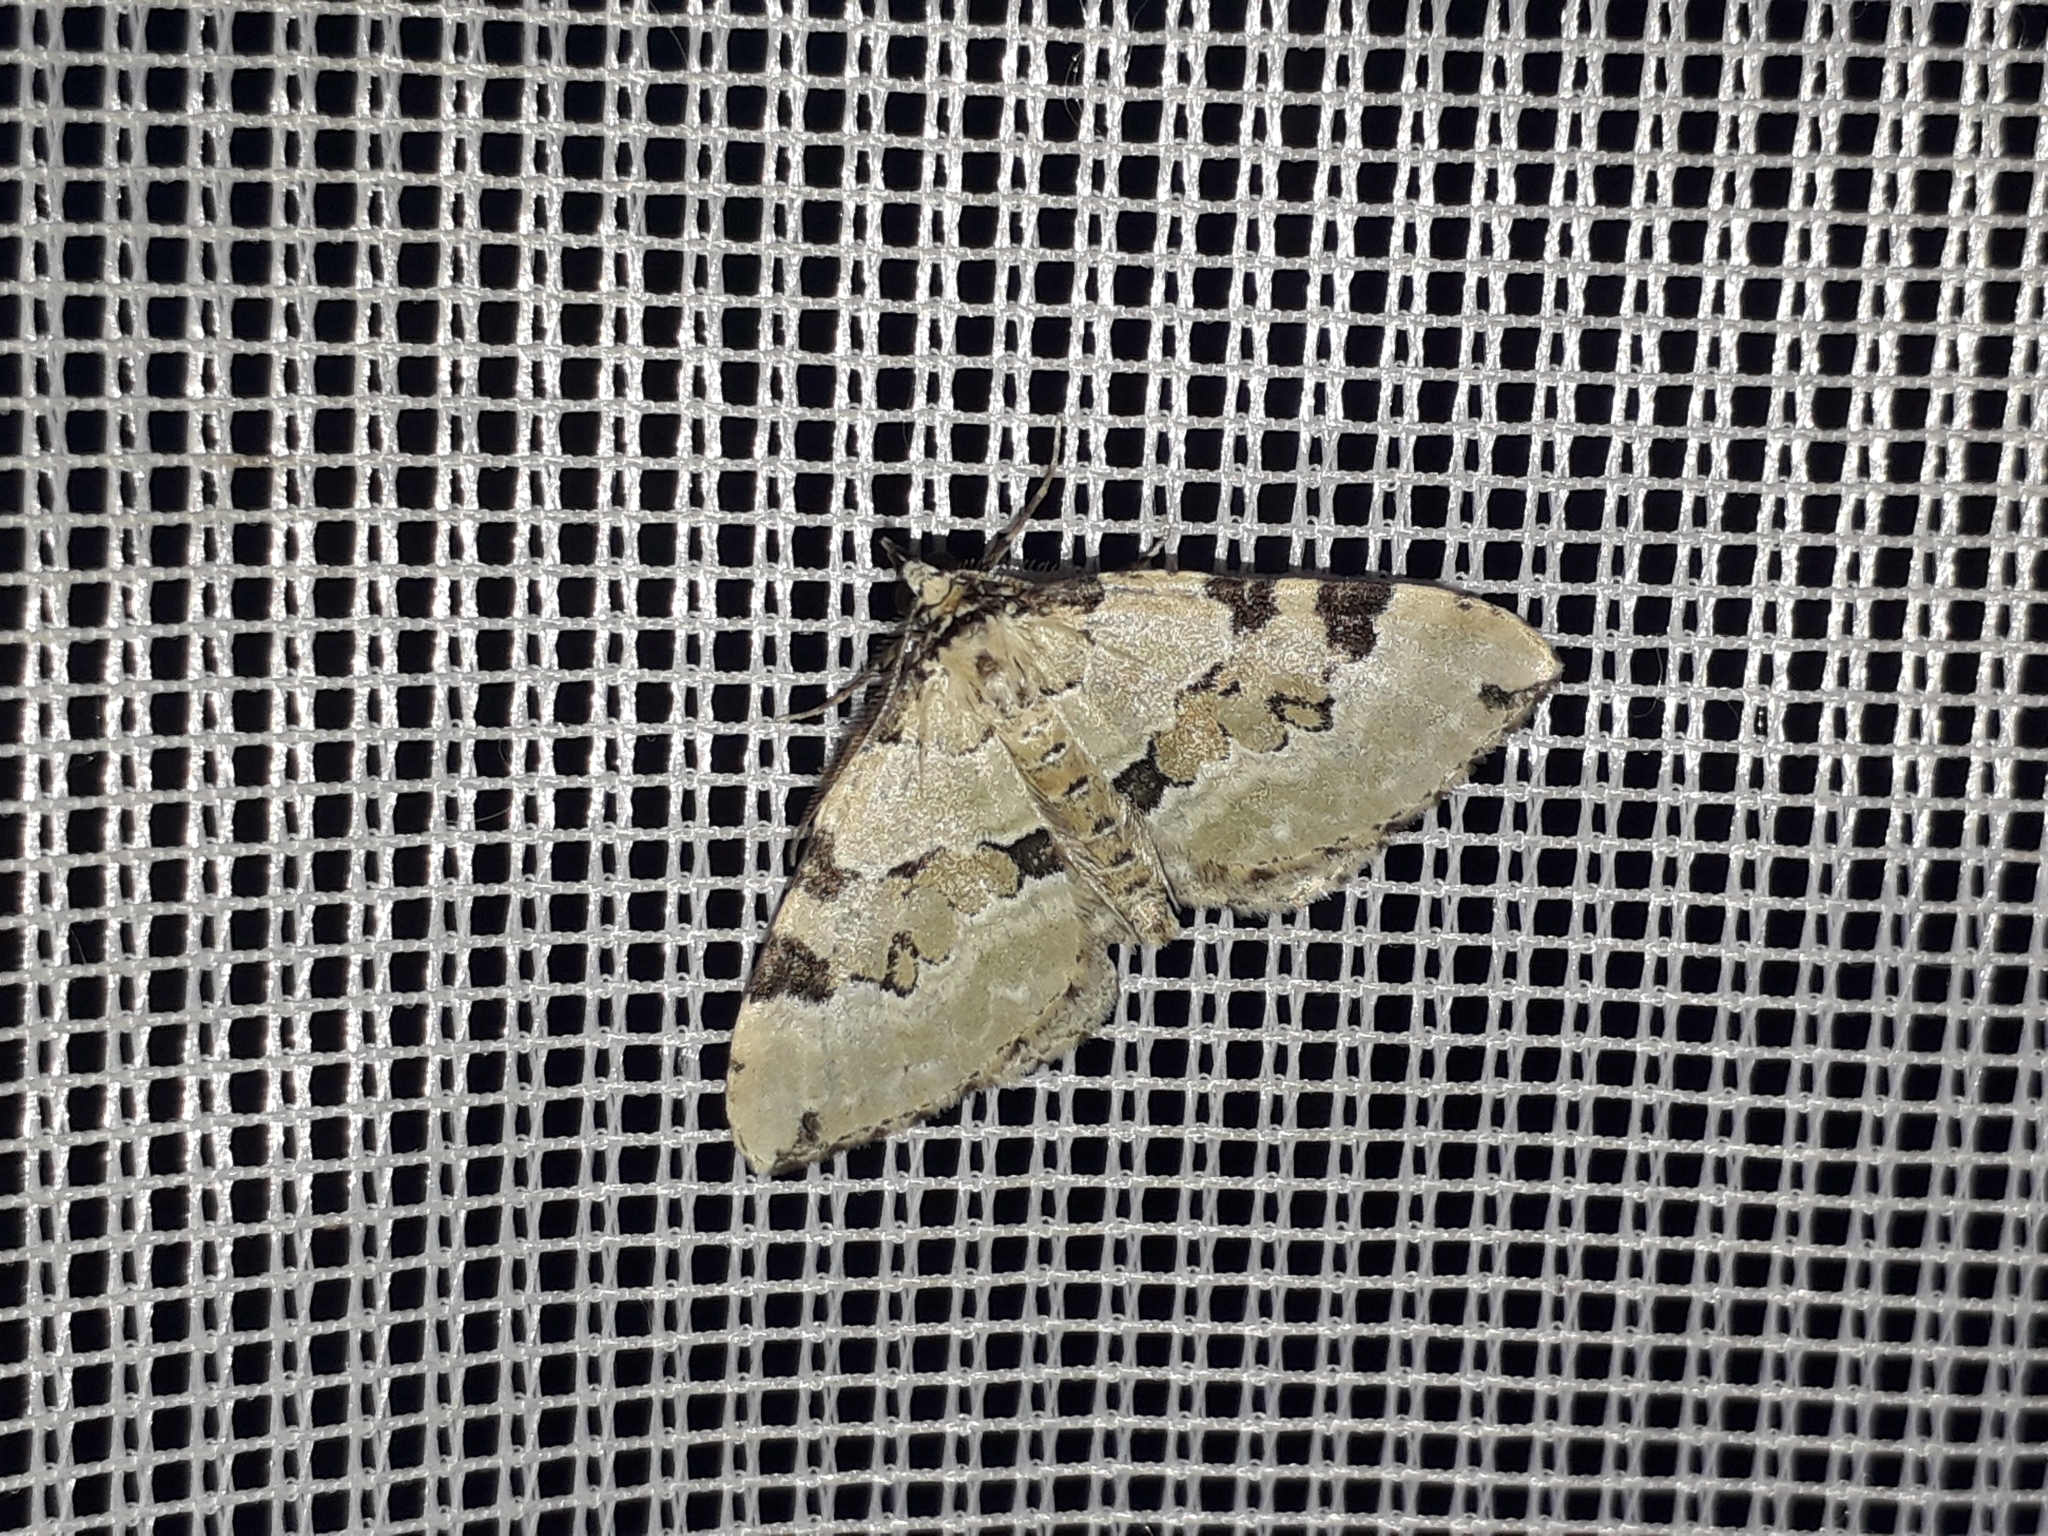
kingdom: Animalia
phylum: Arthropoda
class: Insecta
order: Lepidoptera
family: Geometridae
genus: Colostygia
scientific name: Colostygia pectinataria
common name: Green carpet
